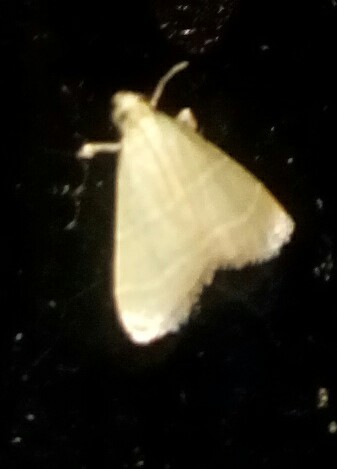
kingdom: Animalia
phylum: Arthropoda
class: Insecta
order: Lepidoptera
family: Pyralidae
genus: Arta
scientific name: Arta olivalis
